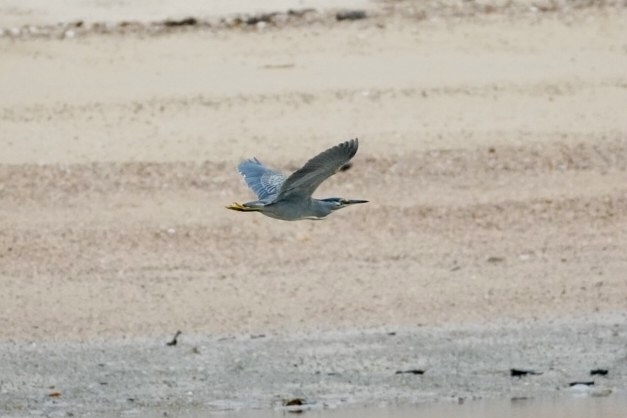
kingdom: Animalia
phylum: Chordata
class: Aves
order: Pelecaniformes
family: Ardeidae
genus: Butorides
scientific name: Butorides striata
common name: Striated heron
